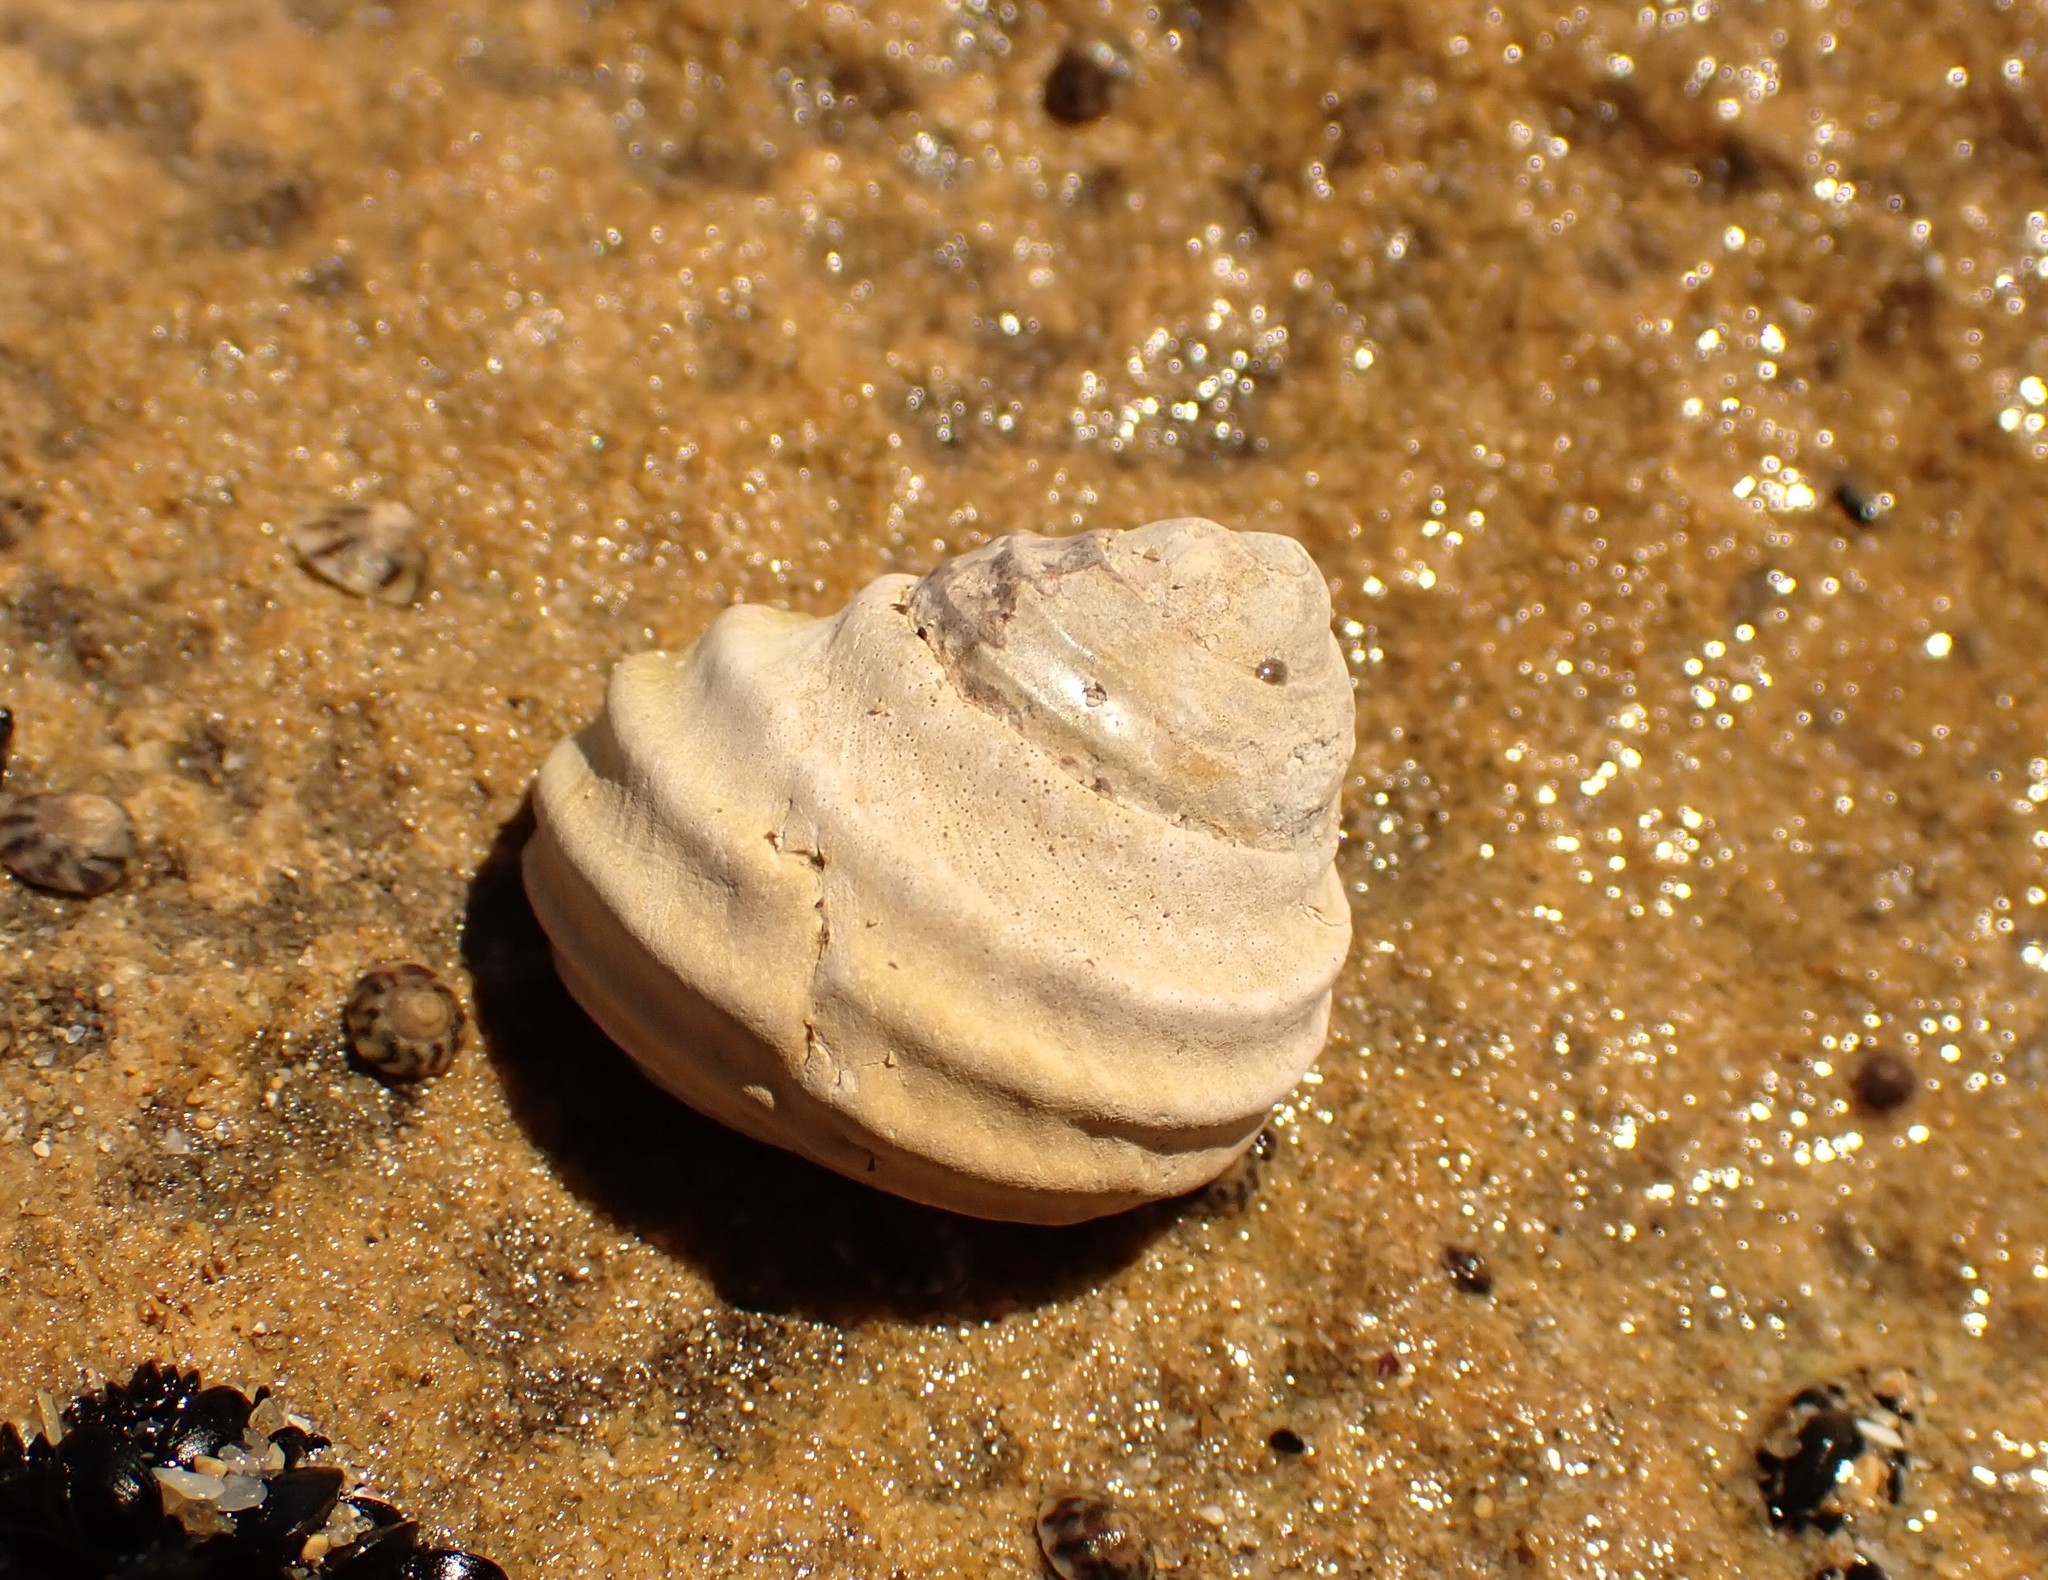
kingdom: Animalia
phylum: Mollusca
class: Gastropoda
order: Trochida
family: Trochidae
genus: Austrocochlea
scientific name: Austrocochlea constricta
